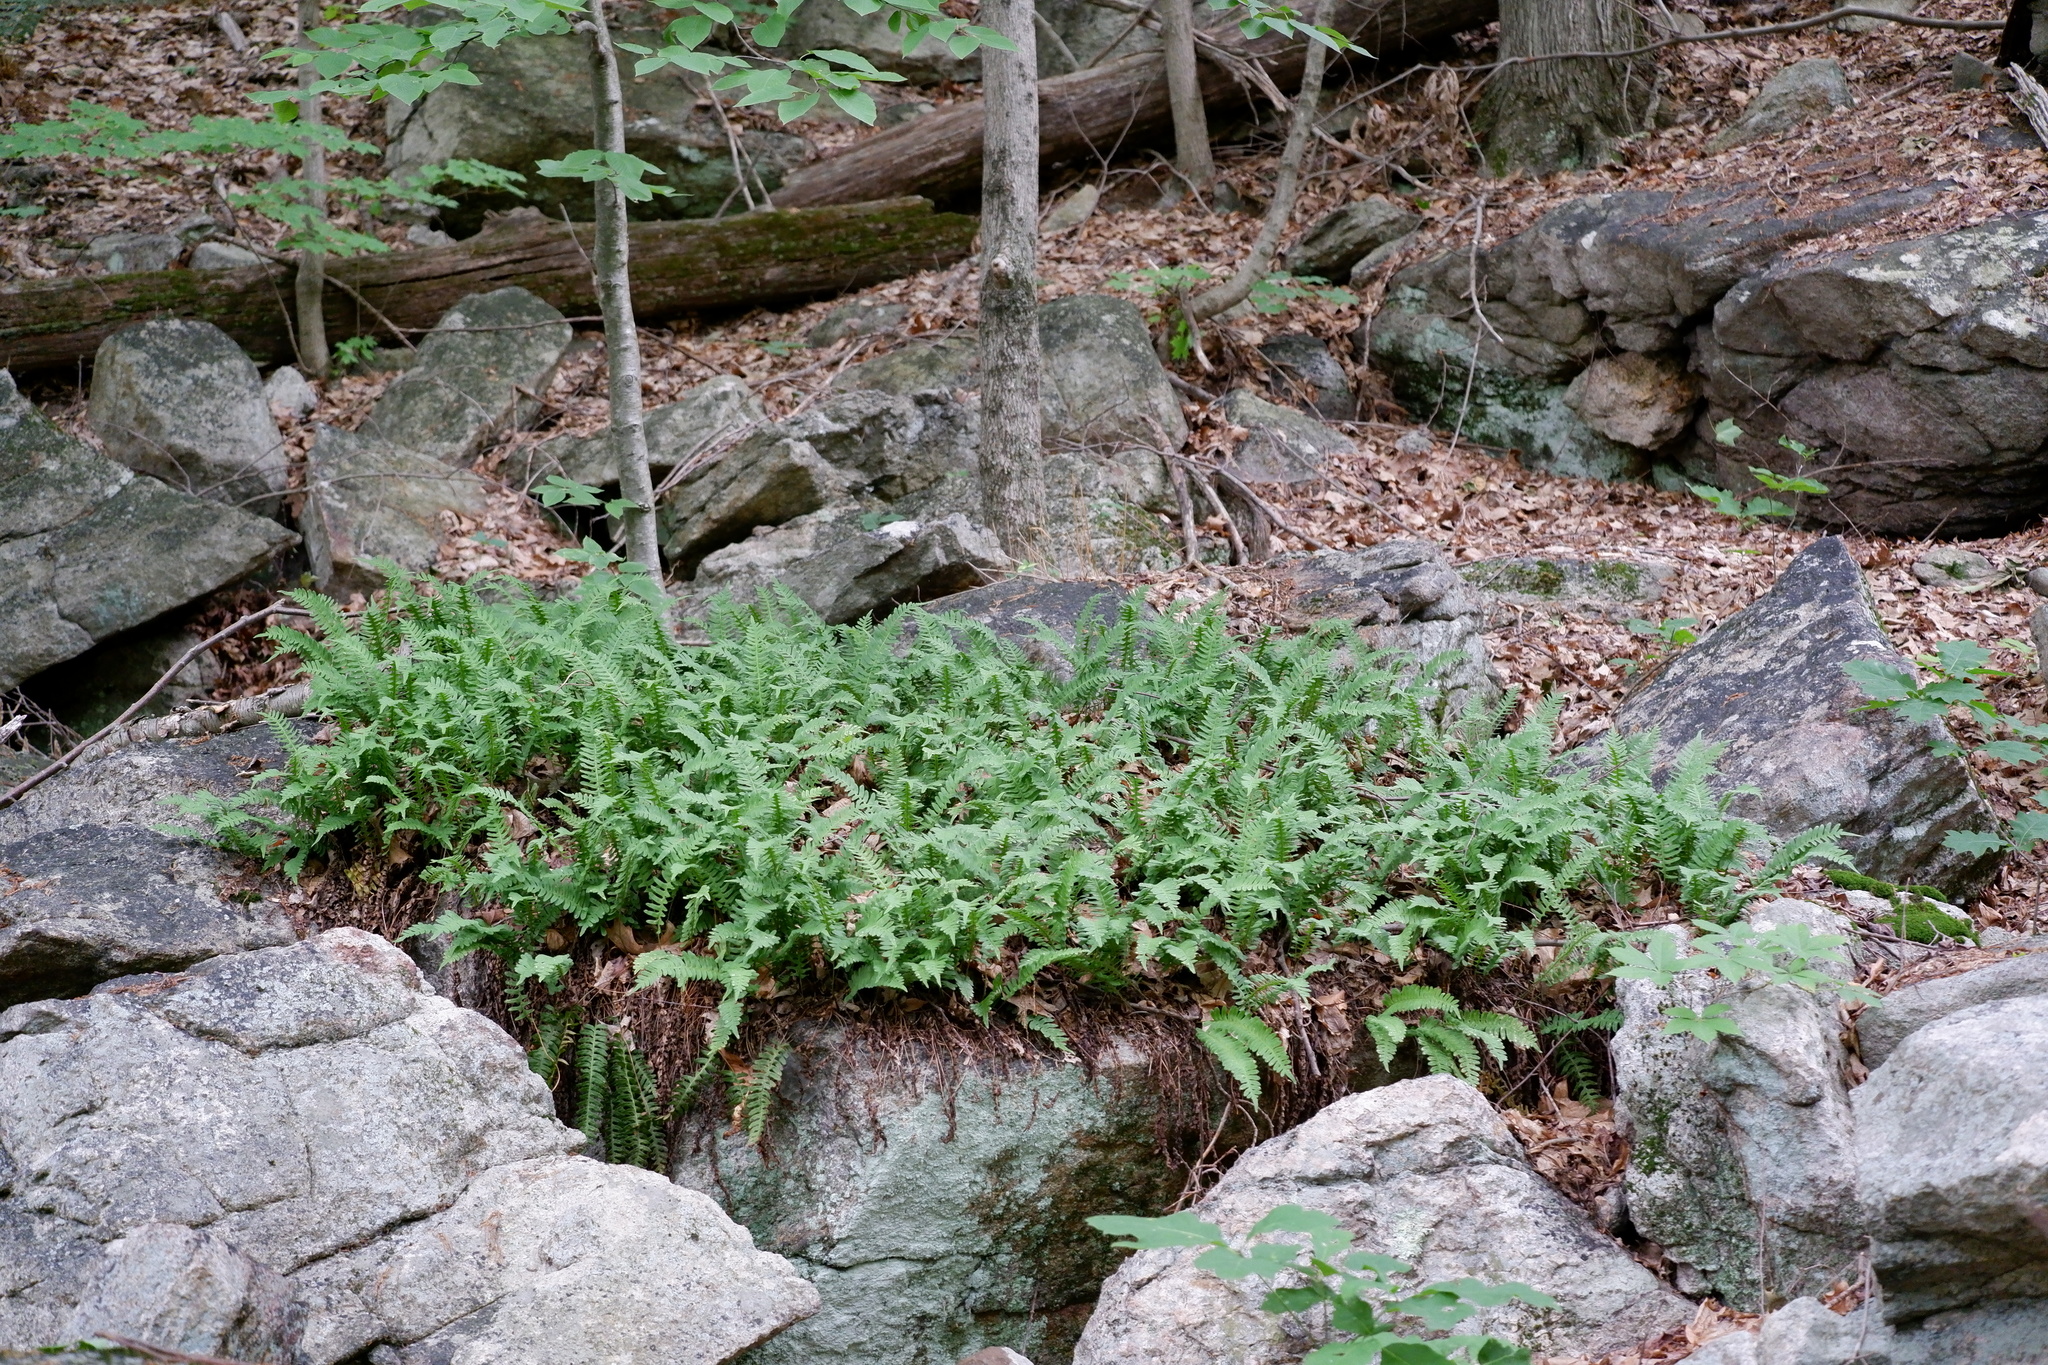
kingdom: Plantae
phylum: Tracheophyta
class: Polypodiopsida
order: Polypodiales
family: Polypodiaceae
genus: Polypodium
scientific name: Polypodium virginianum
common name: American wall fern
